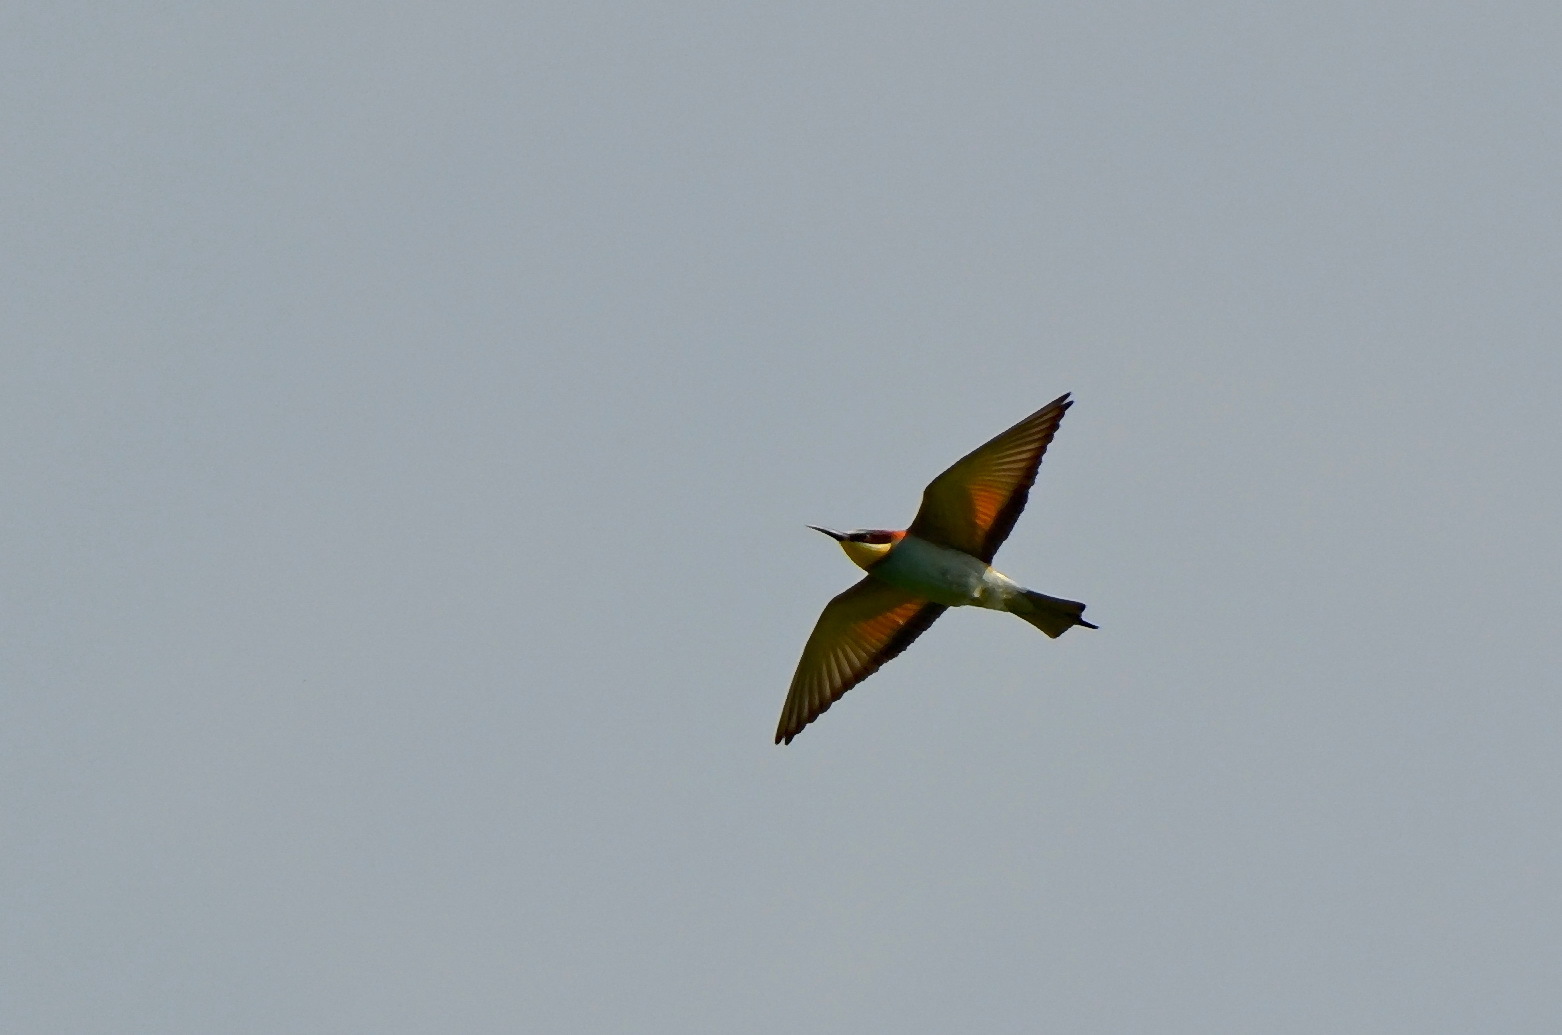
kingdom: Animalia
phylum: Chordata
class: Aves
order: Coraciiformes
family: Meropidae
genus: Merops
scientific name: Merops apiaster
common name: European bee-eater
